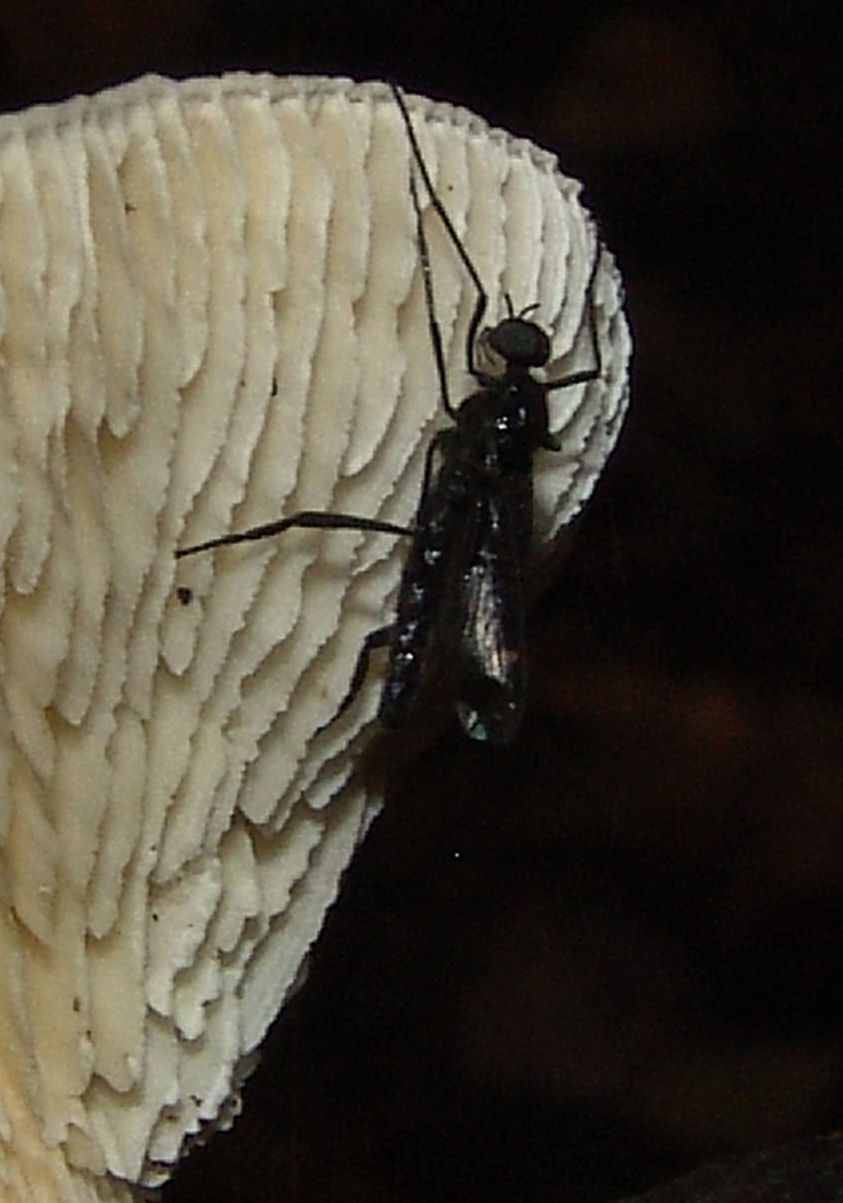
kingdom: Animalia
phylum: Arthropoda
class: Insecta
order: Diptera
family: Bibionidae
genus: Penthetria
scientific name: Penthetria heteroptera
